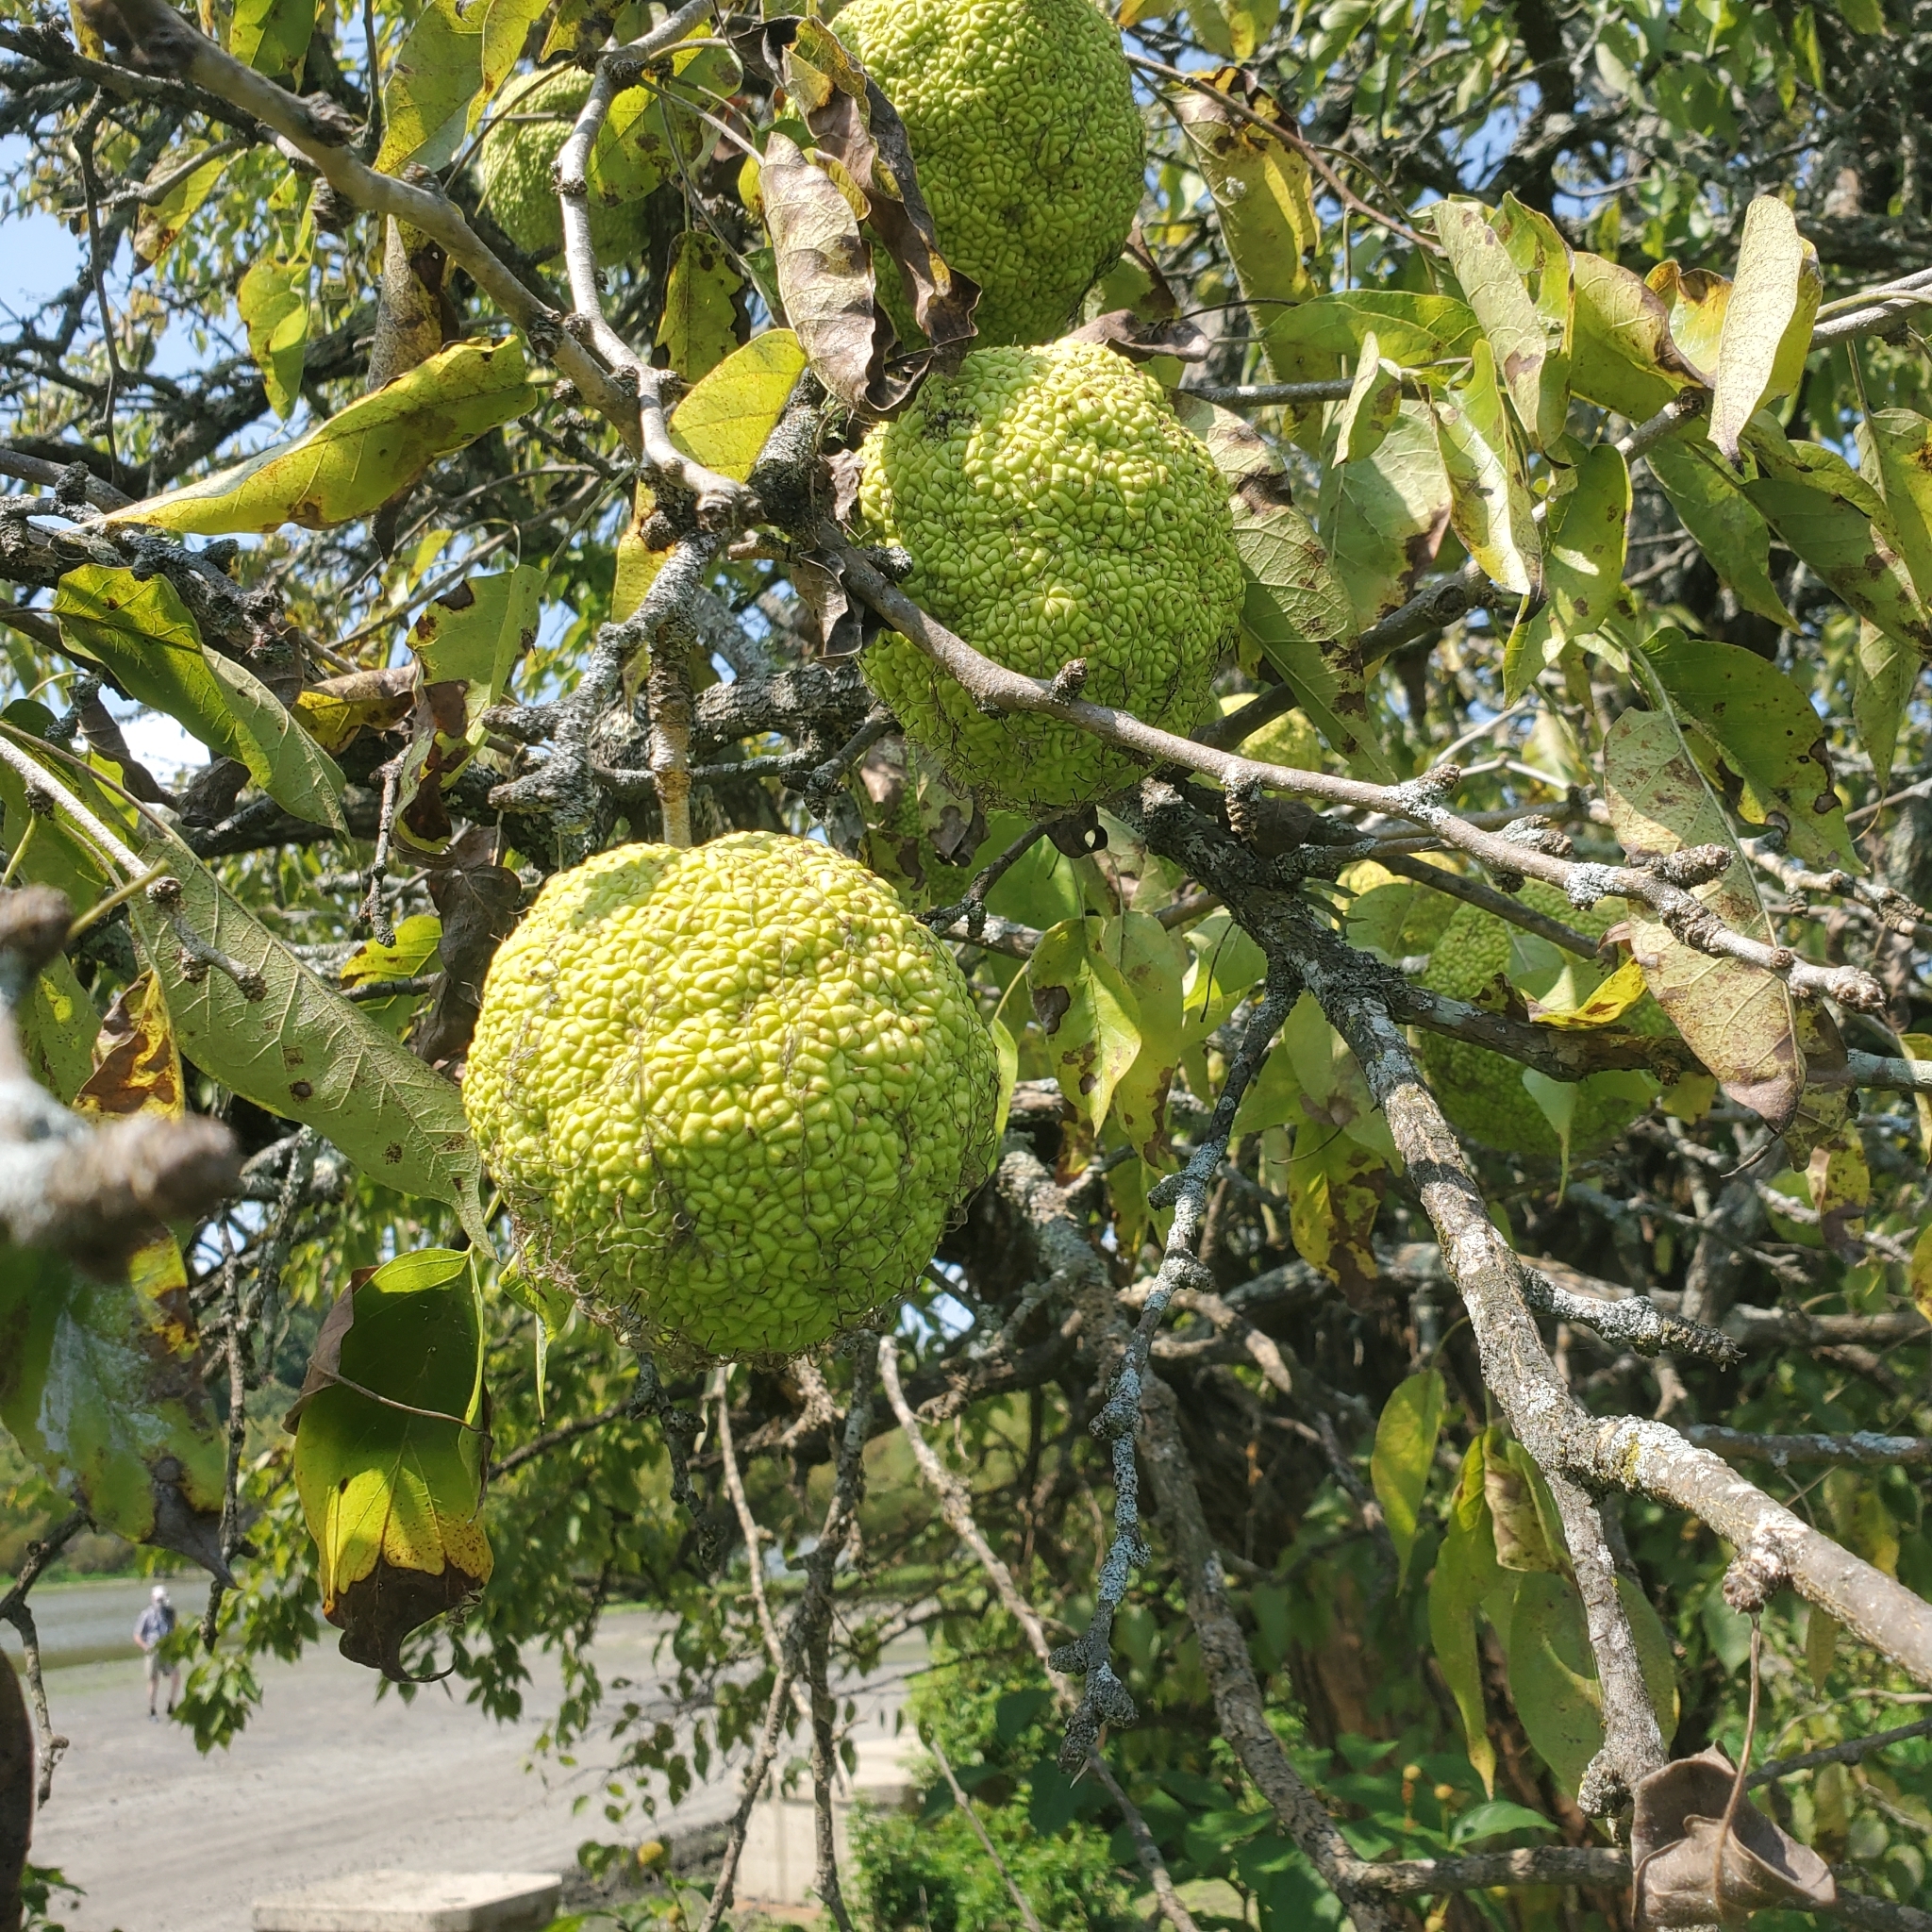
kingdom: Plantae
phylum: Tracheophyta
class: Magnoliopsida
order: Rosales
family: Moraceae
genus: Maclura
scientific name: Maclura pomifera
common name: Osage-orange
